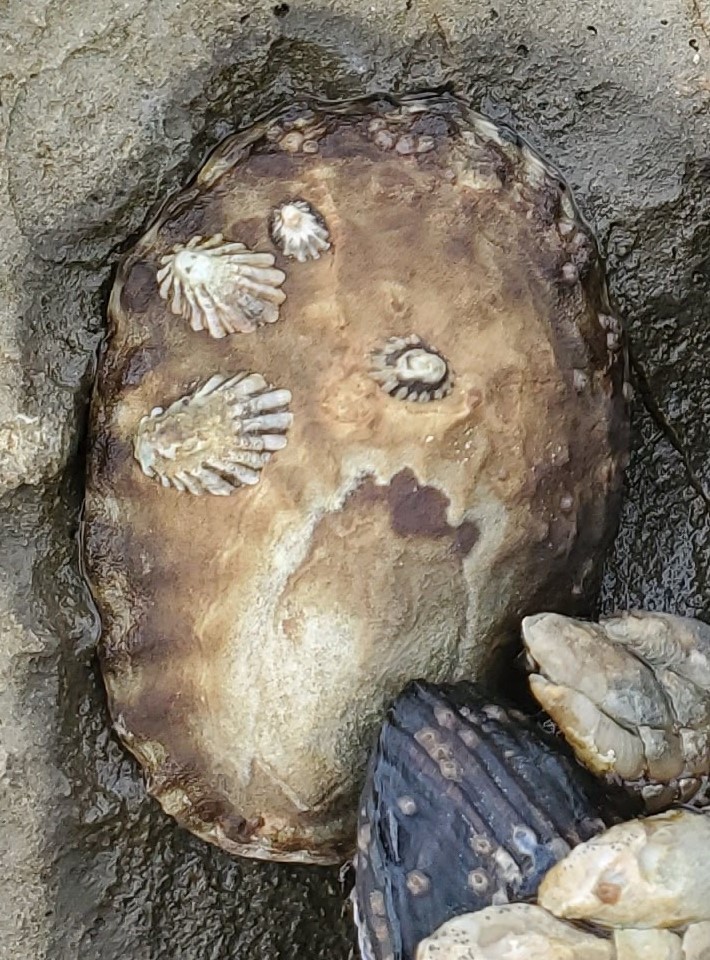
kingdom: Animalia
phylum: Mollusca
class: Gastropoda
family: Lottiidae
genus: Lottia
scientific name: Lottia gigantea
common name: Owl limpet
